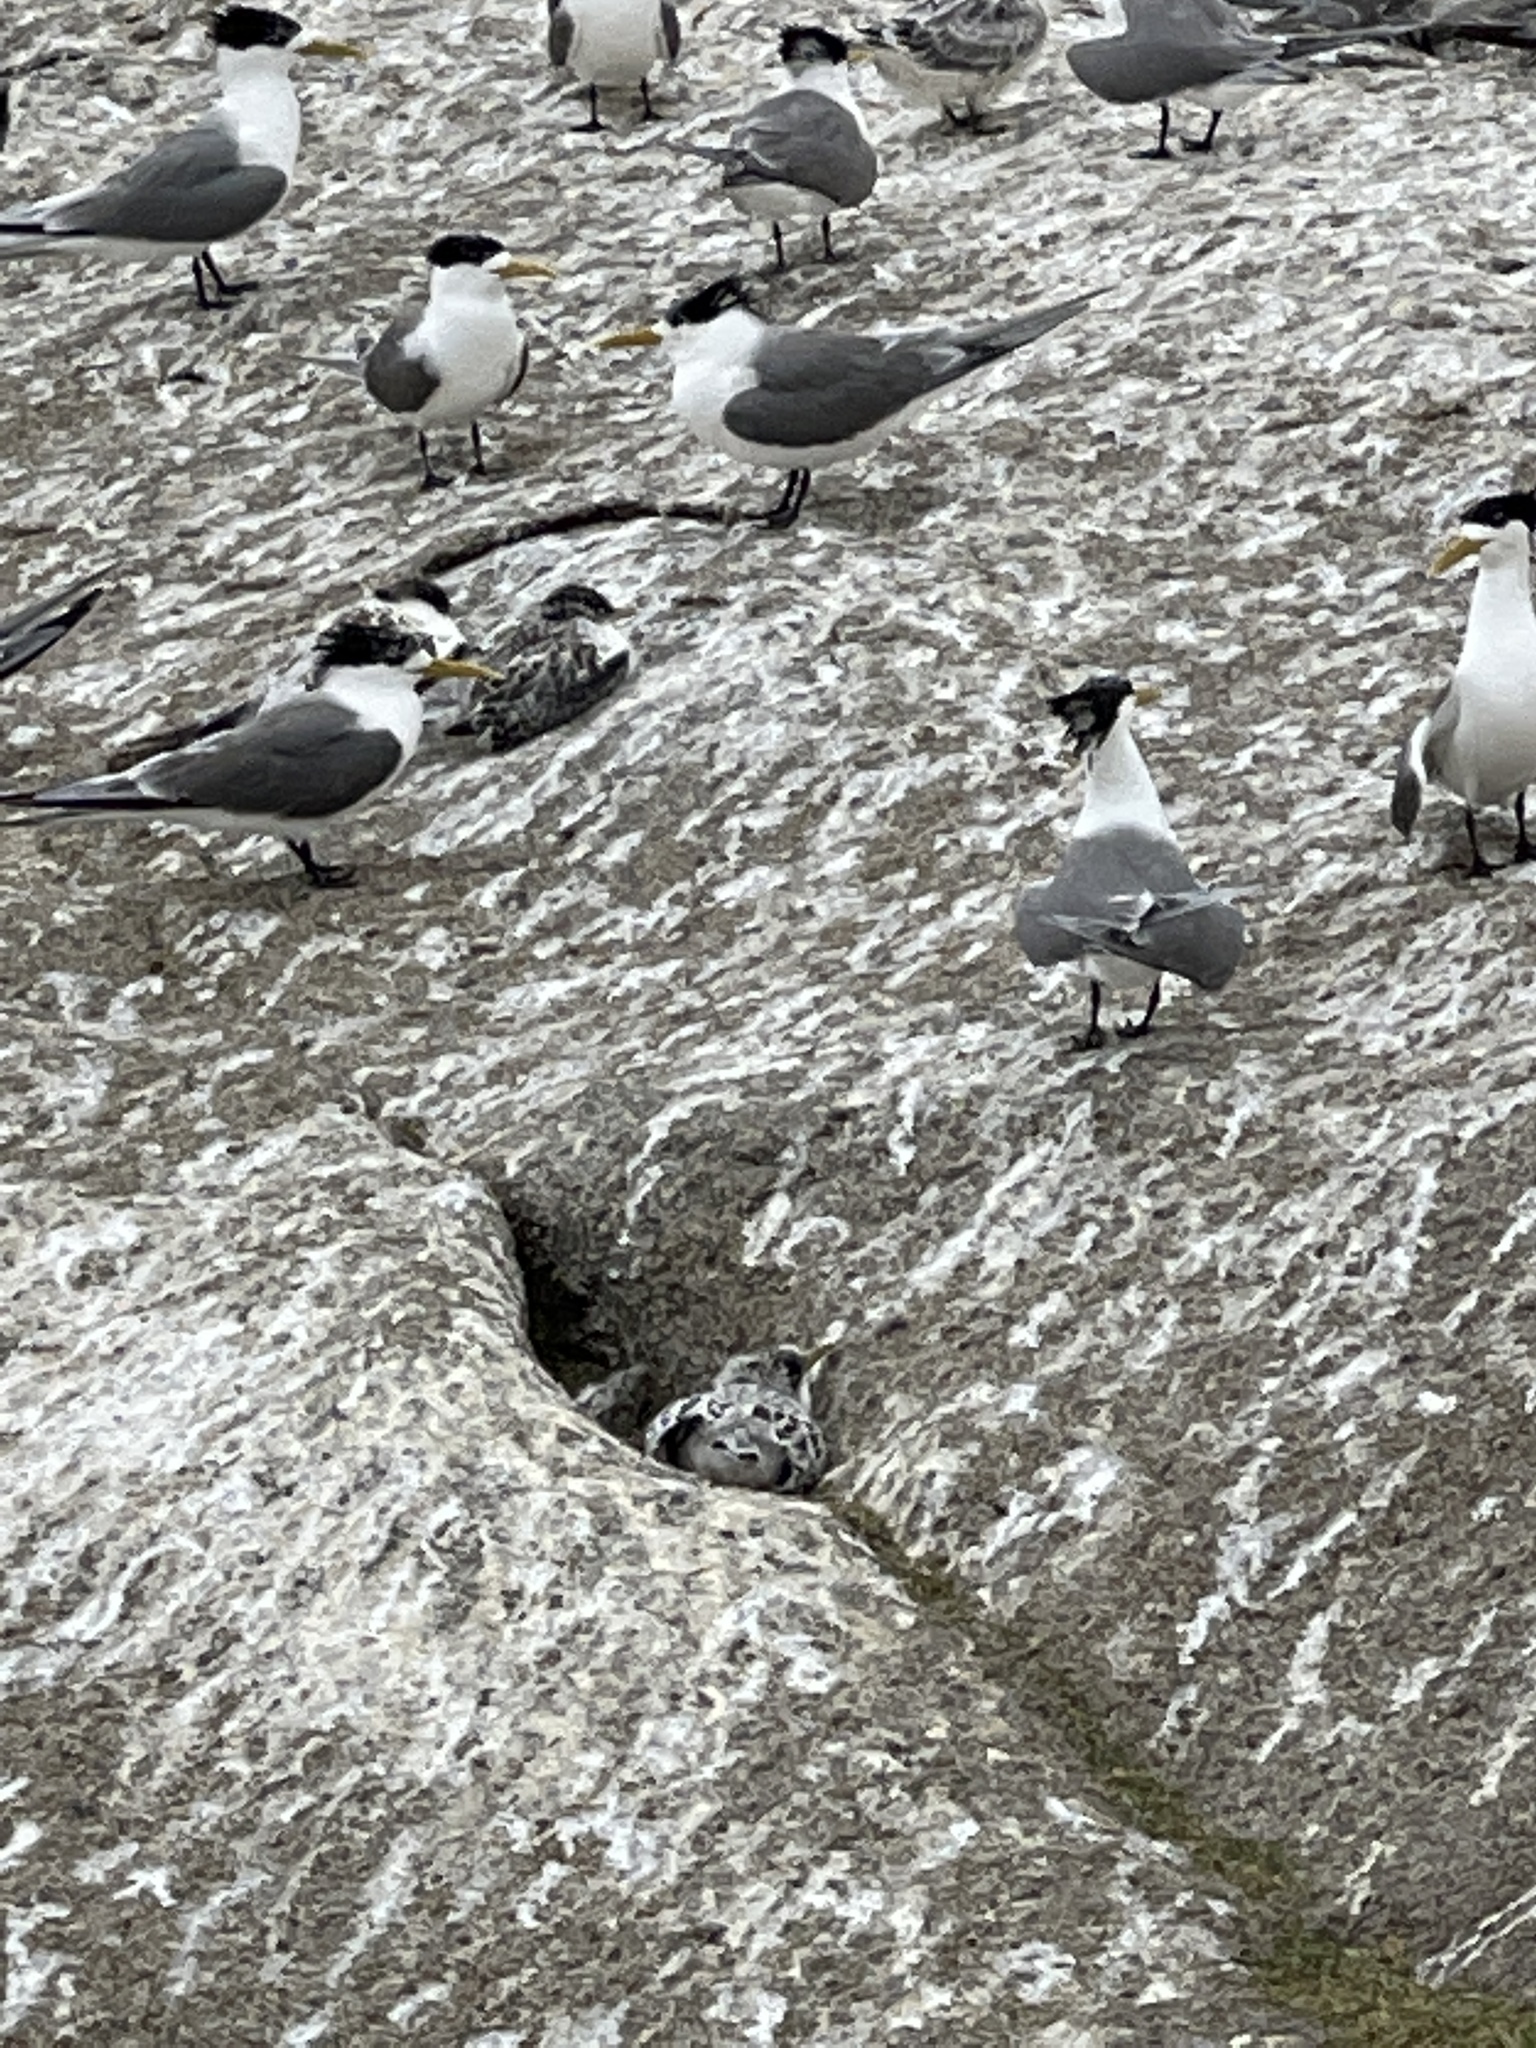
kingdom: Animalia
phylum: Chordata
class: Aves
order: Charadriiformes
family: Laridae
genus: Thalasseus
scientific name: Thalasseus bergii
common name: Greater crested tern
